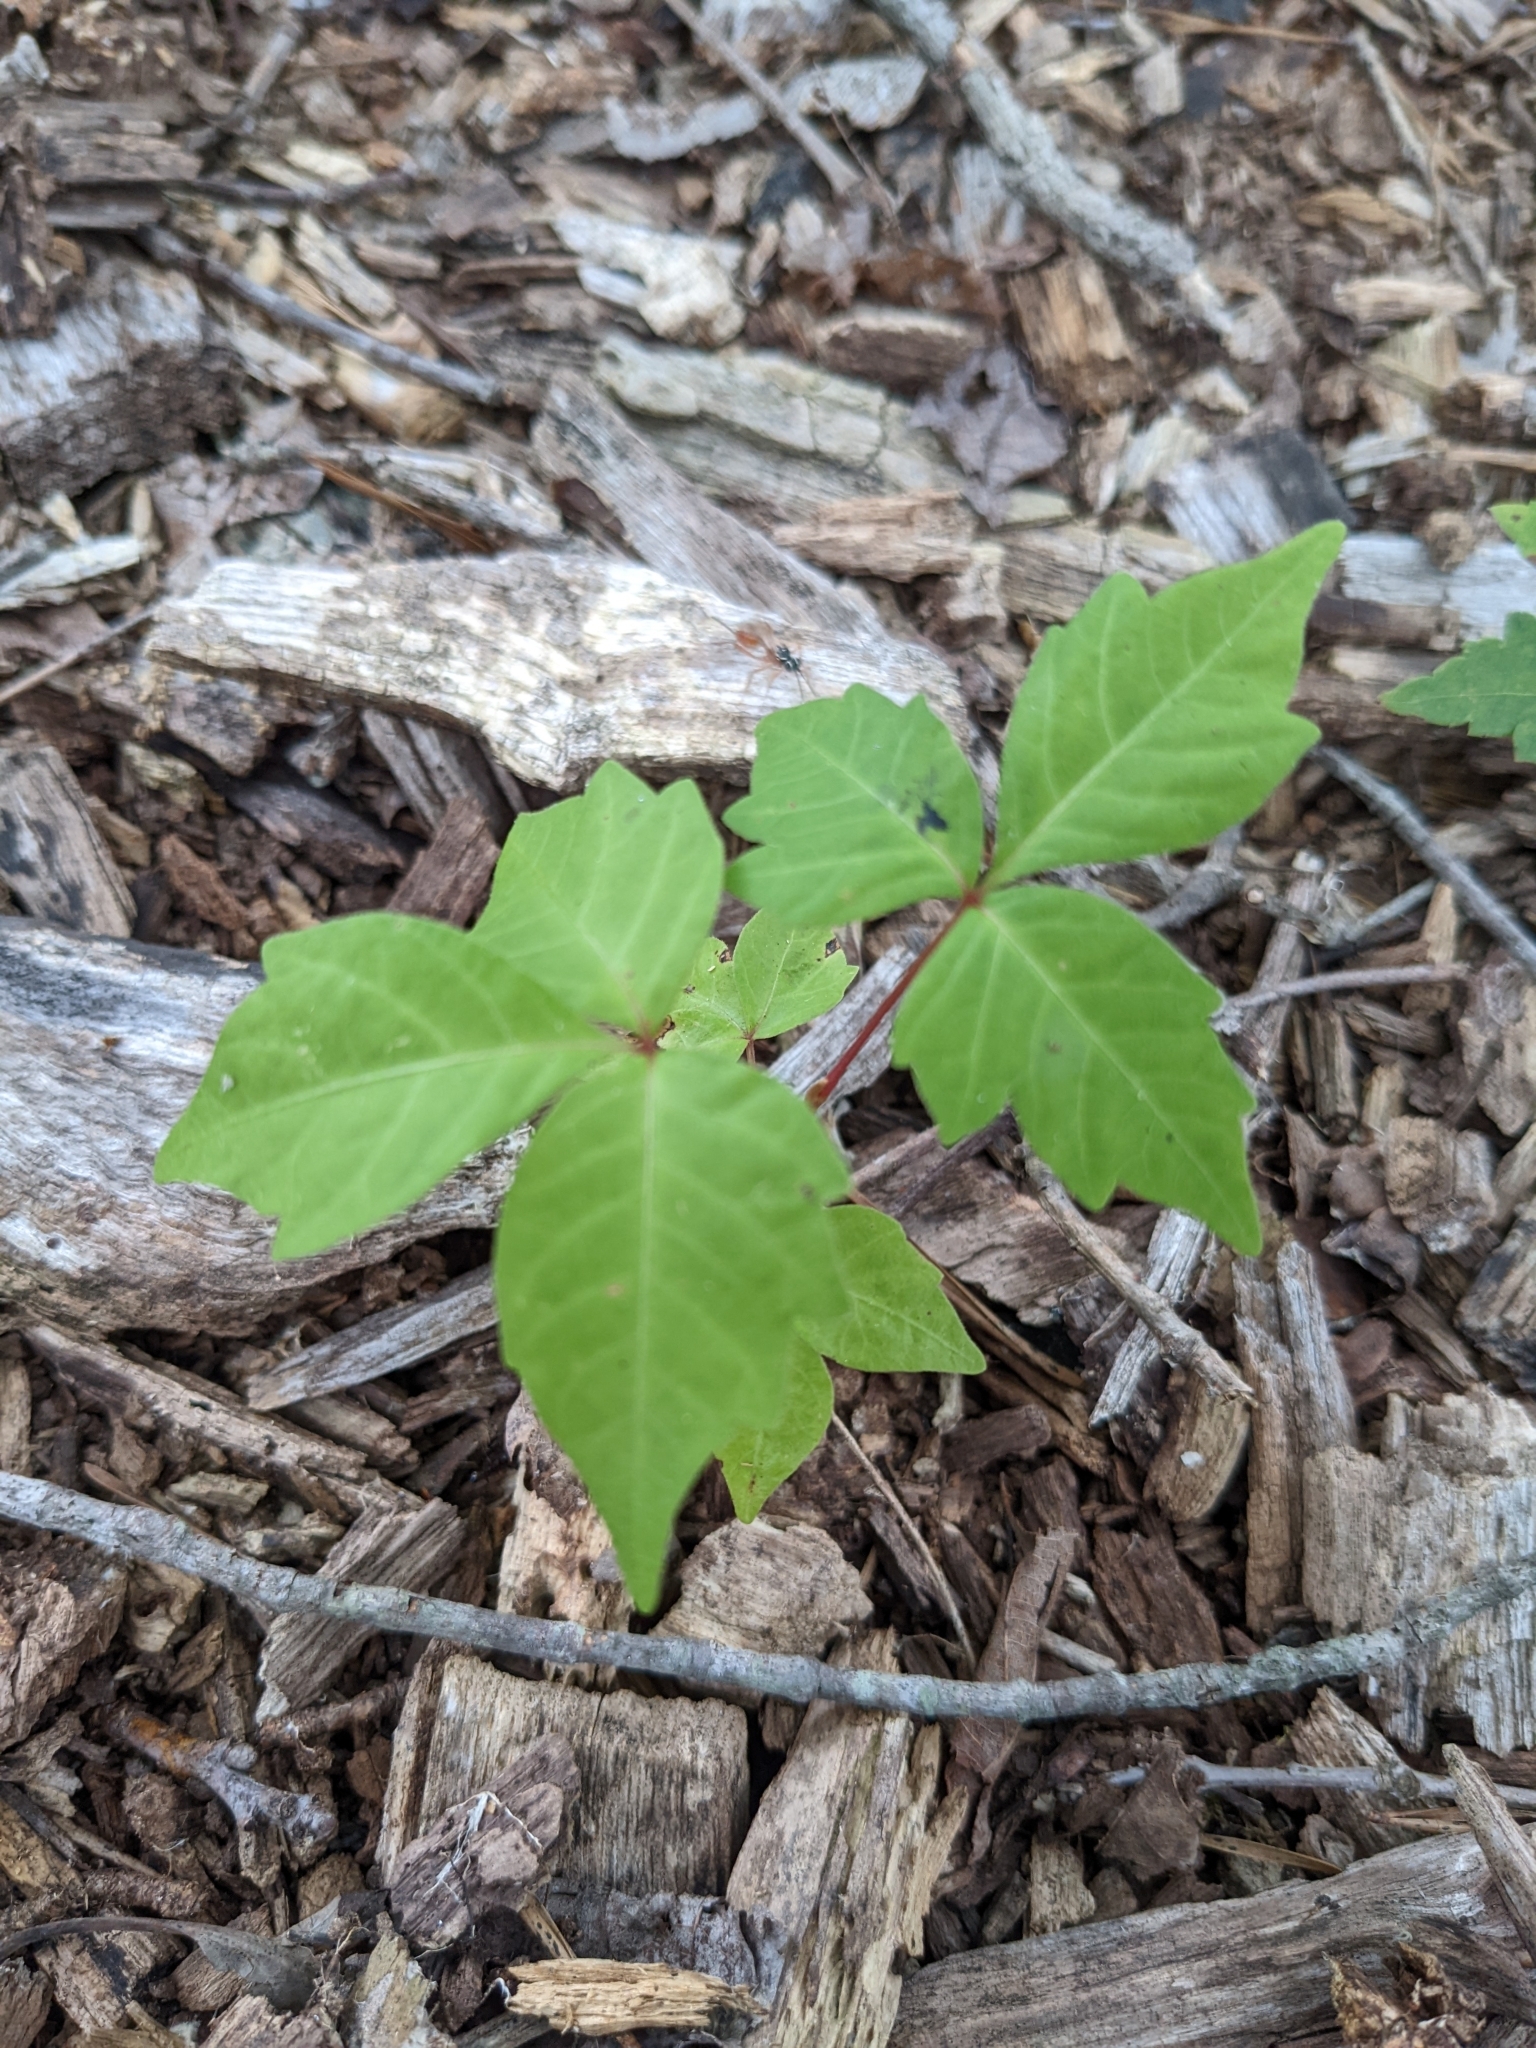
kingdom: Plantae
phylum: Tracheophyta
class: Magnoliopsida
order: Sapindales
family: Anacardiaceae
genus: Toxicodendron
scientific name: Toxicodendron radicans
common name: Poison ivy
